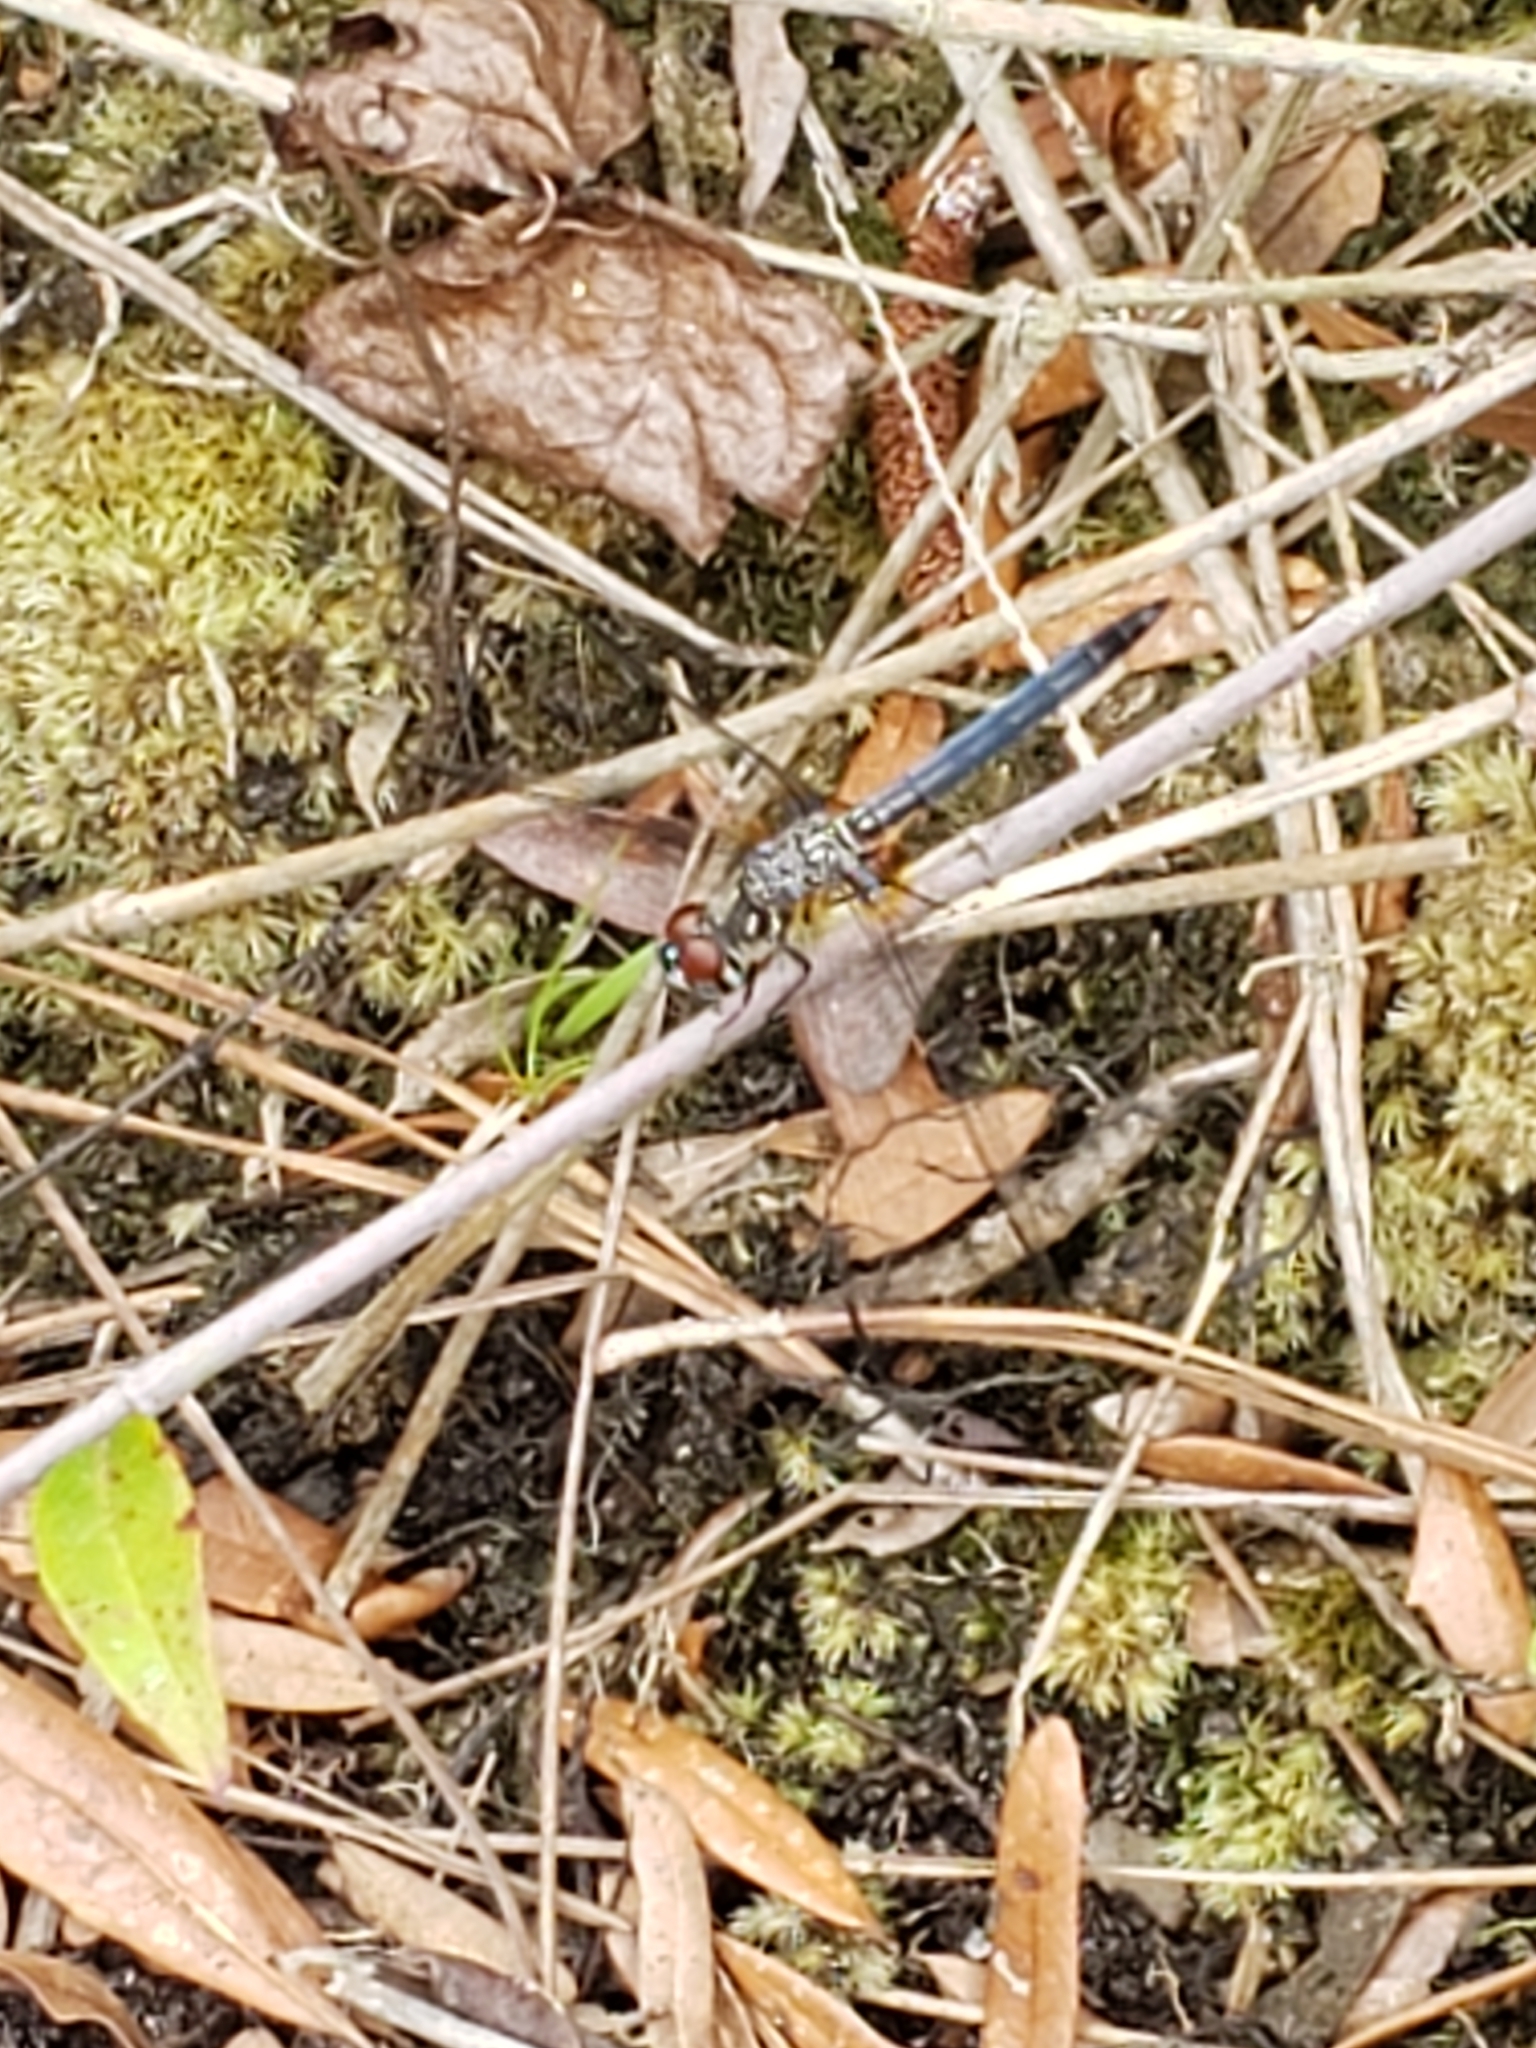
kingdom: Animalia
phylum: Arthropoda
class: Insecta
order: Odonata
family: Libellulidae
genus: Pachydiplax
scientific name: Pachydiplax longipennis
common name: Blue dasher
